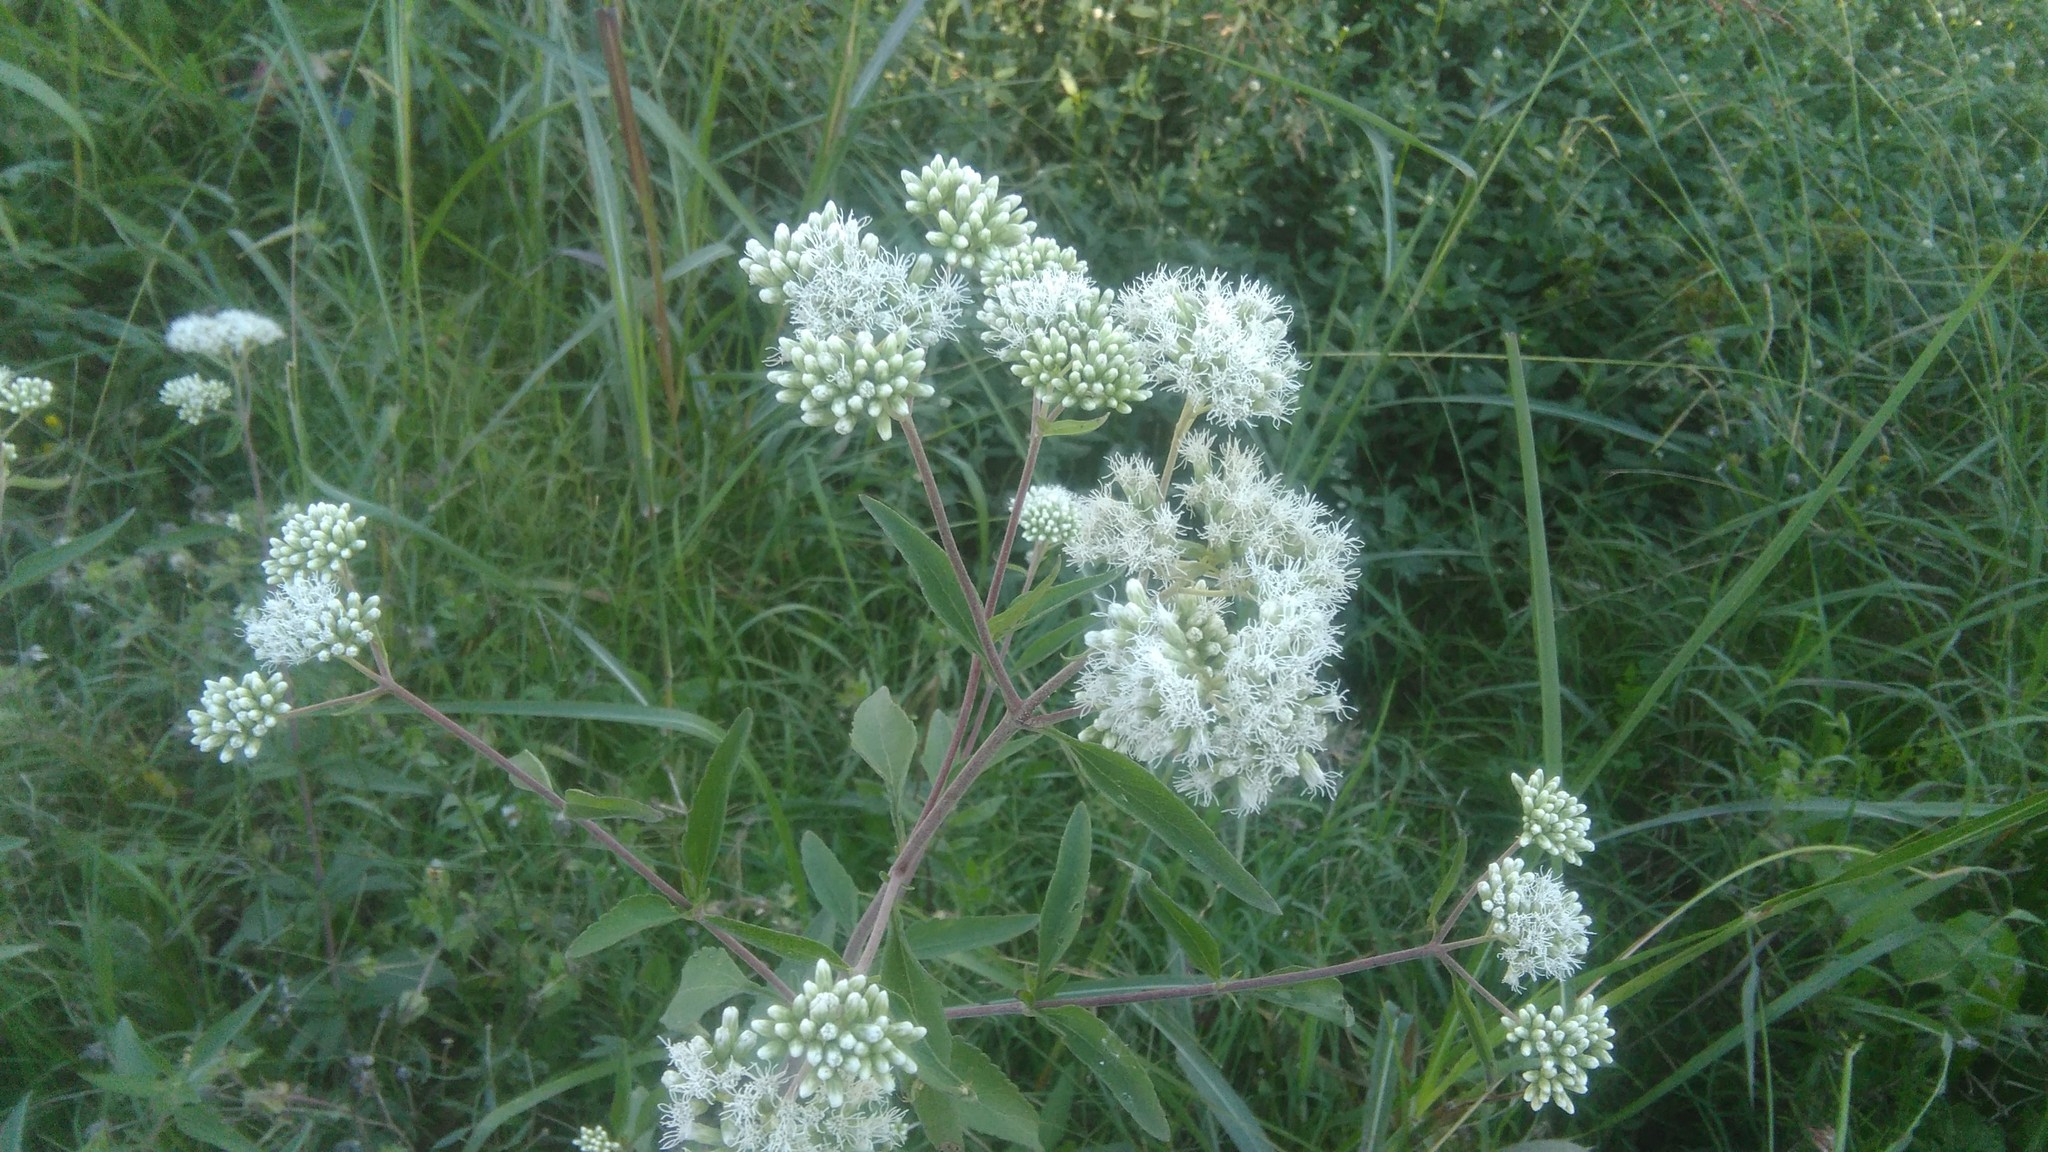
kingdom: Plantae
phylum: Tracheophyta
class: Magnoliopsida
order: Asterales
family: Asteraceae
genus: Austroeupatorium
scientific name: Austroeupatorium inulifolium
